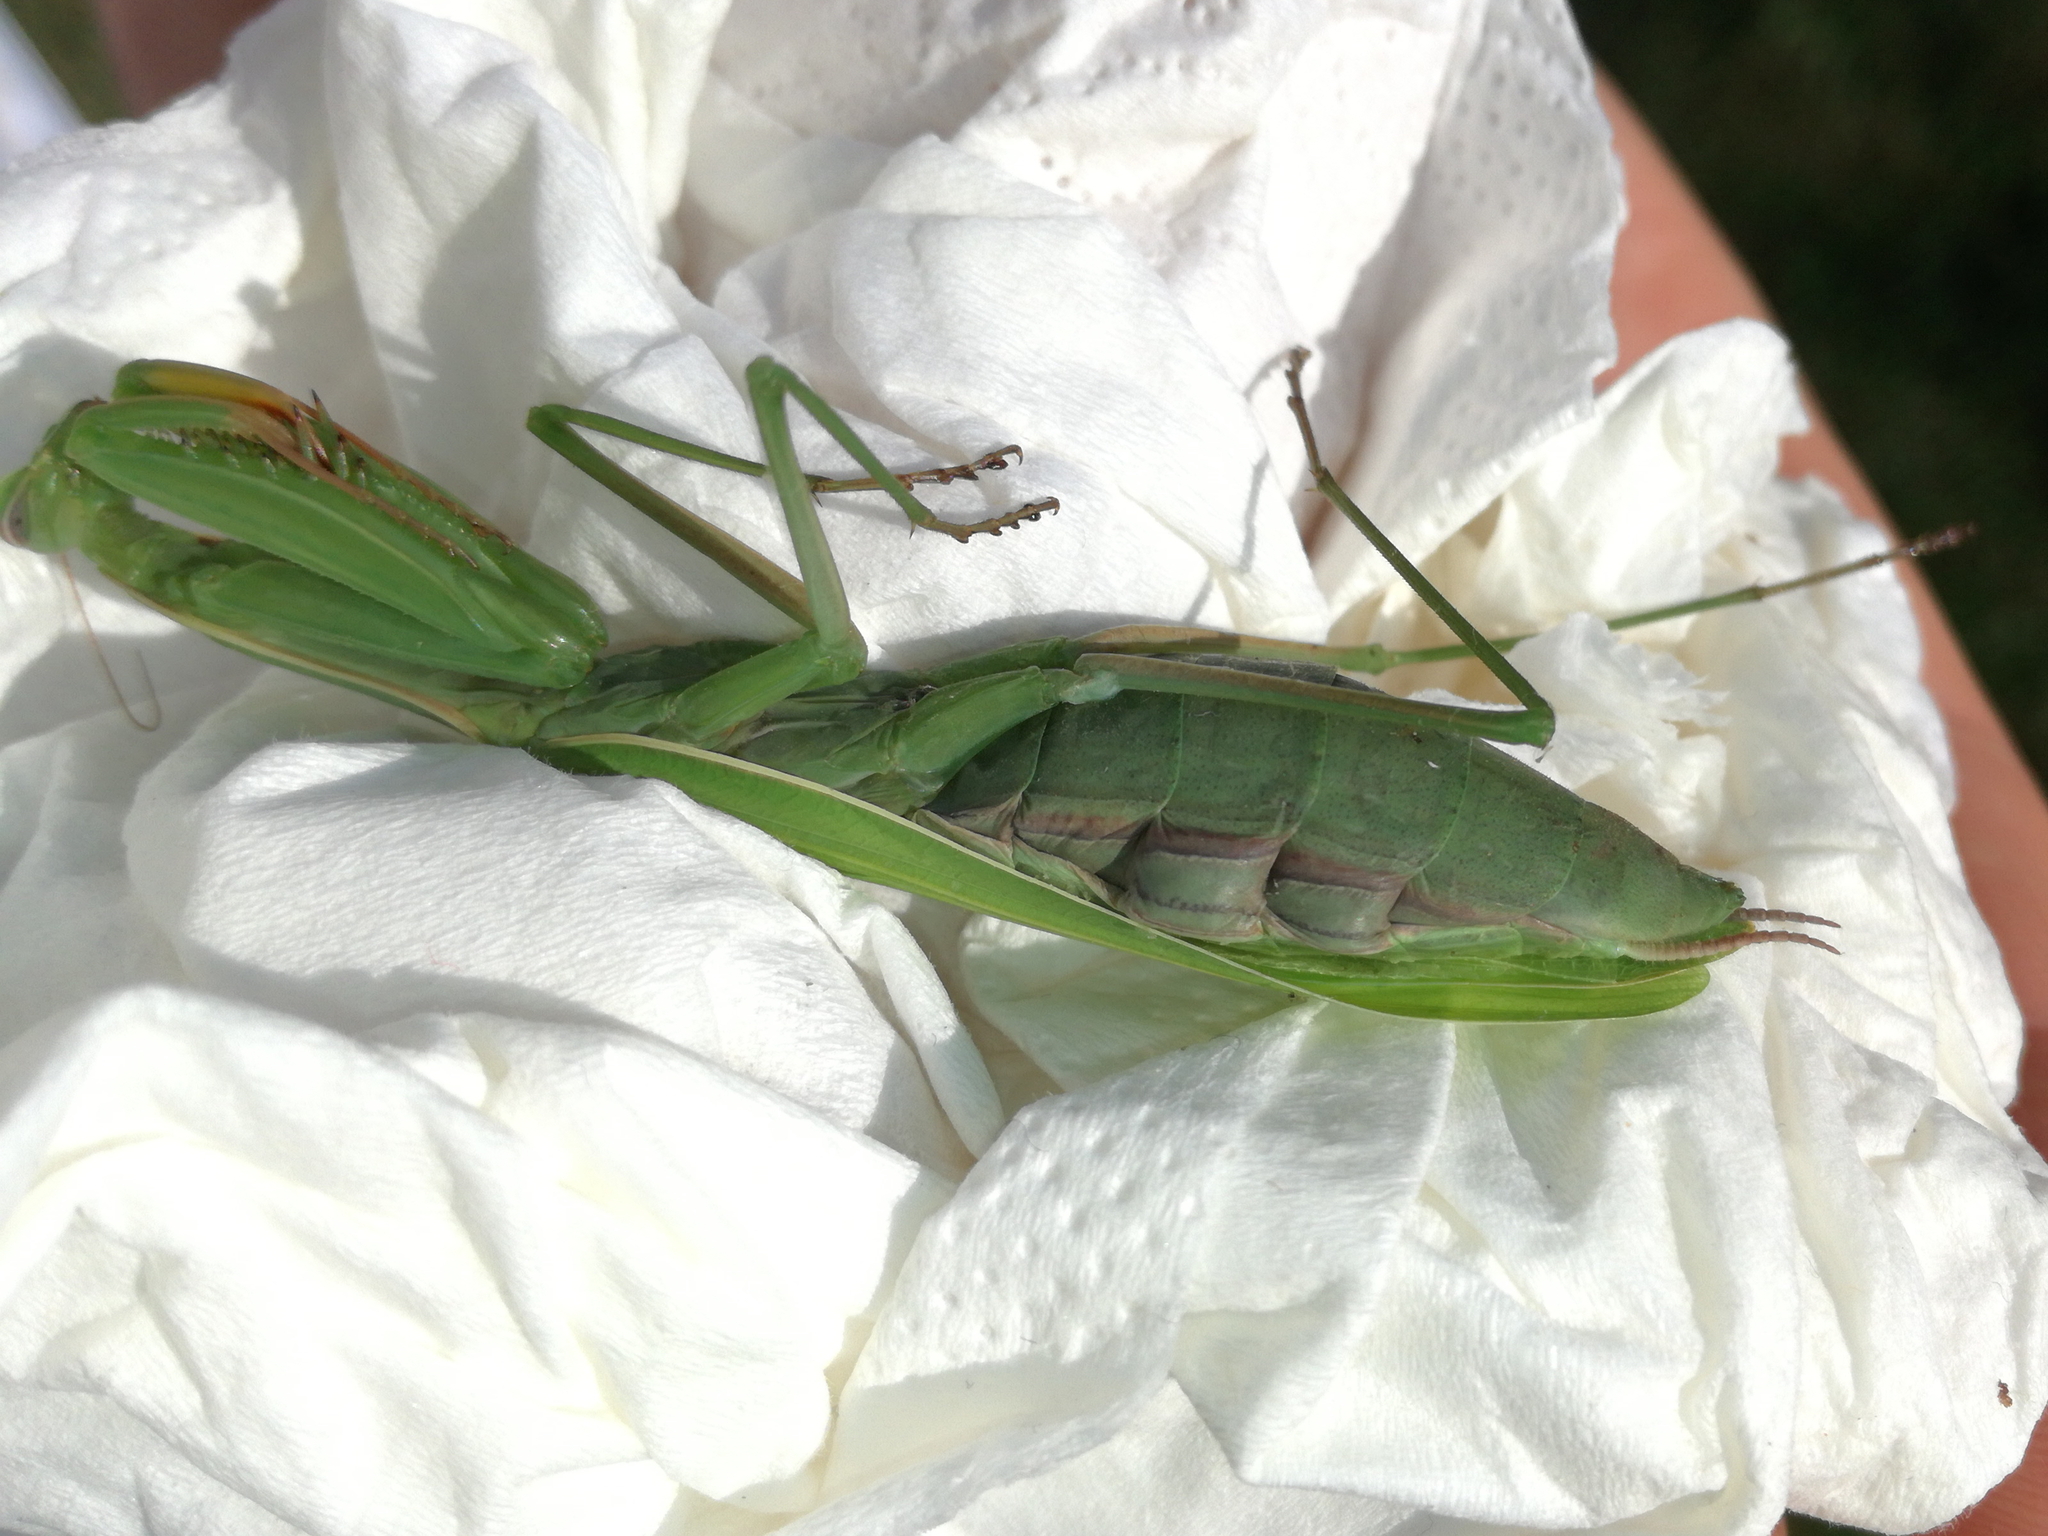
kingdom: Animalia
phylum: Arthropoda
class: Insecta
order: Mantodea
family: Mantidae
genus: Mantis
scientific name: Mantis religiosa
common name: Praying mantis
